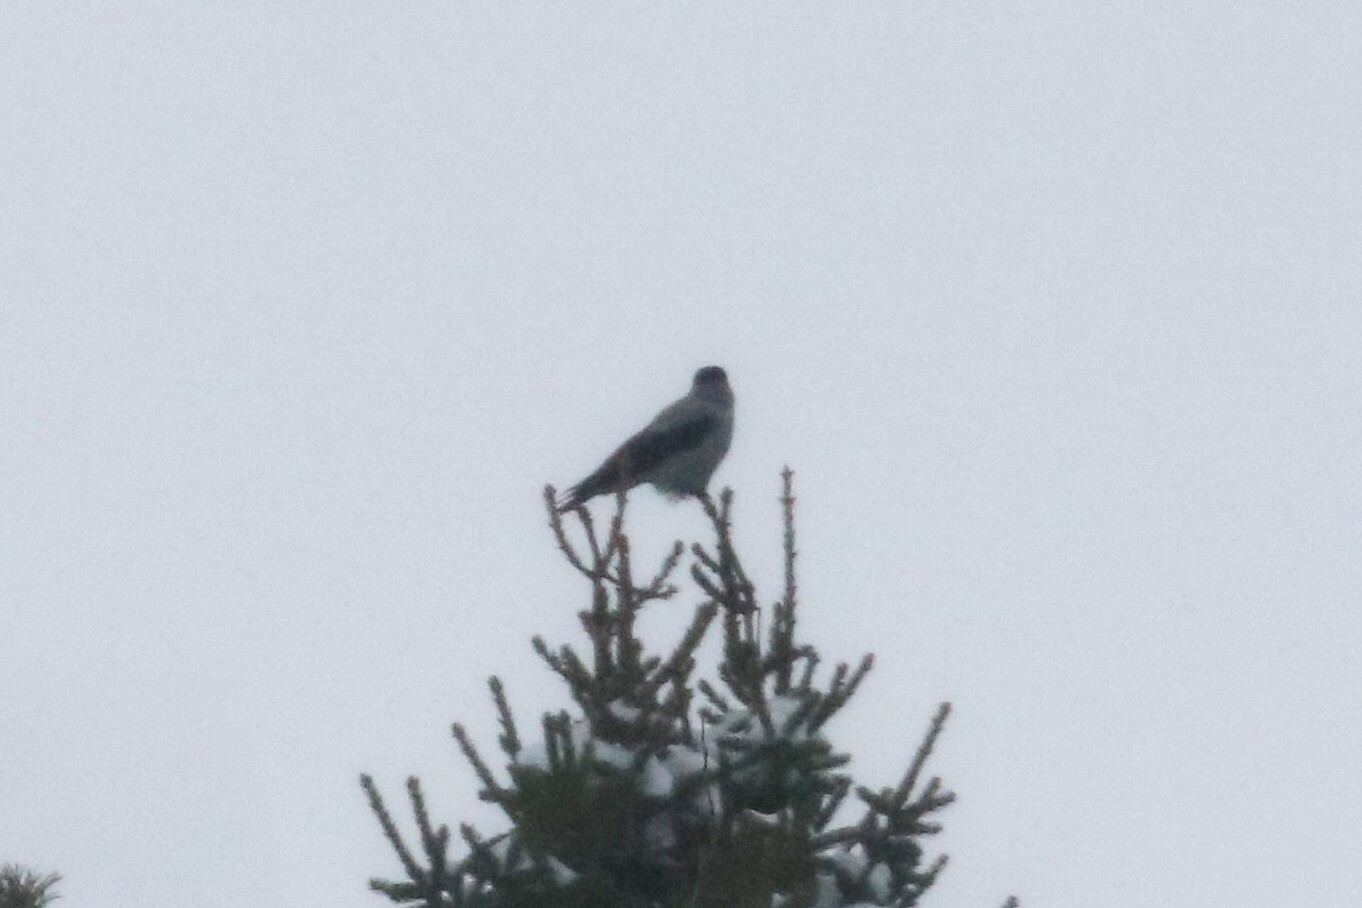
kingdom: Animalia
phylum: Chordata
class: Aves
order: Passeriformes
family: Corvidae
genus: Corvus
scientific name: Corvus cornix
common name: Hooded crow
